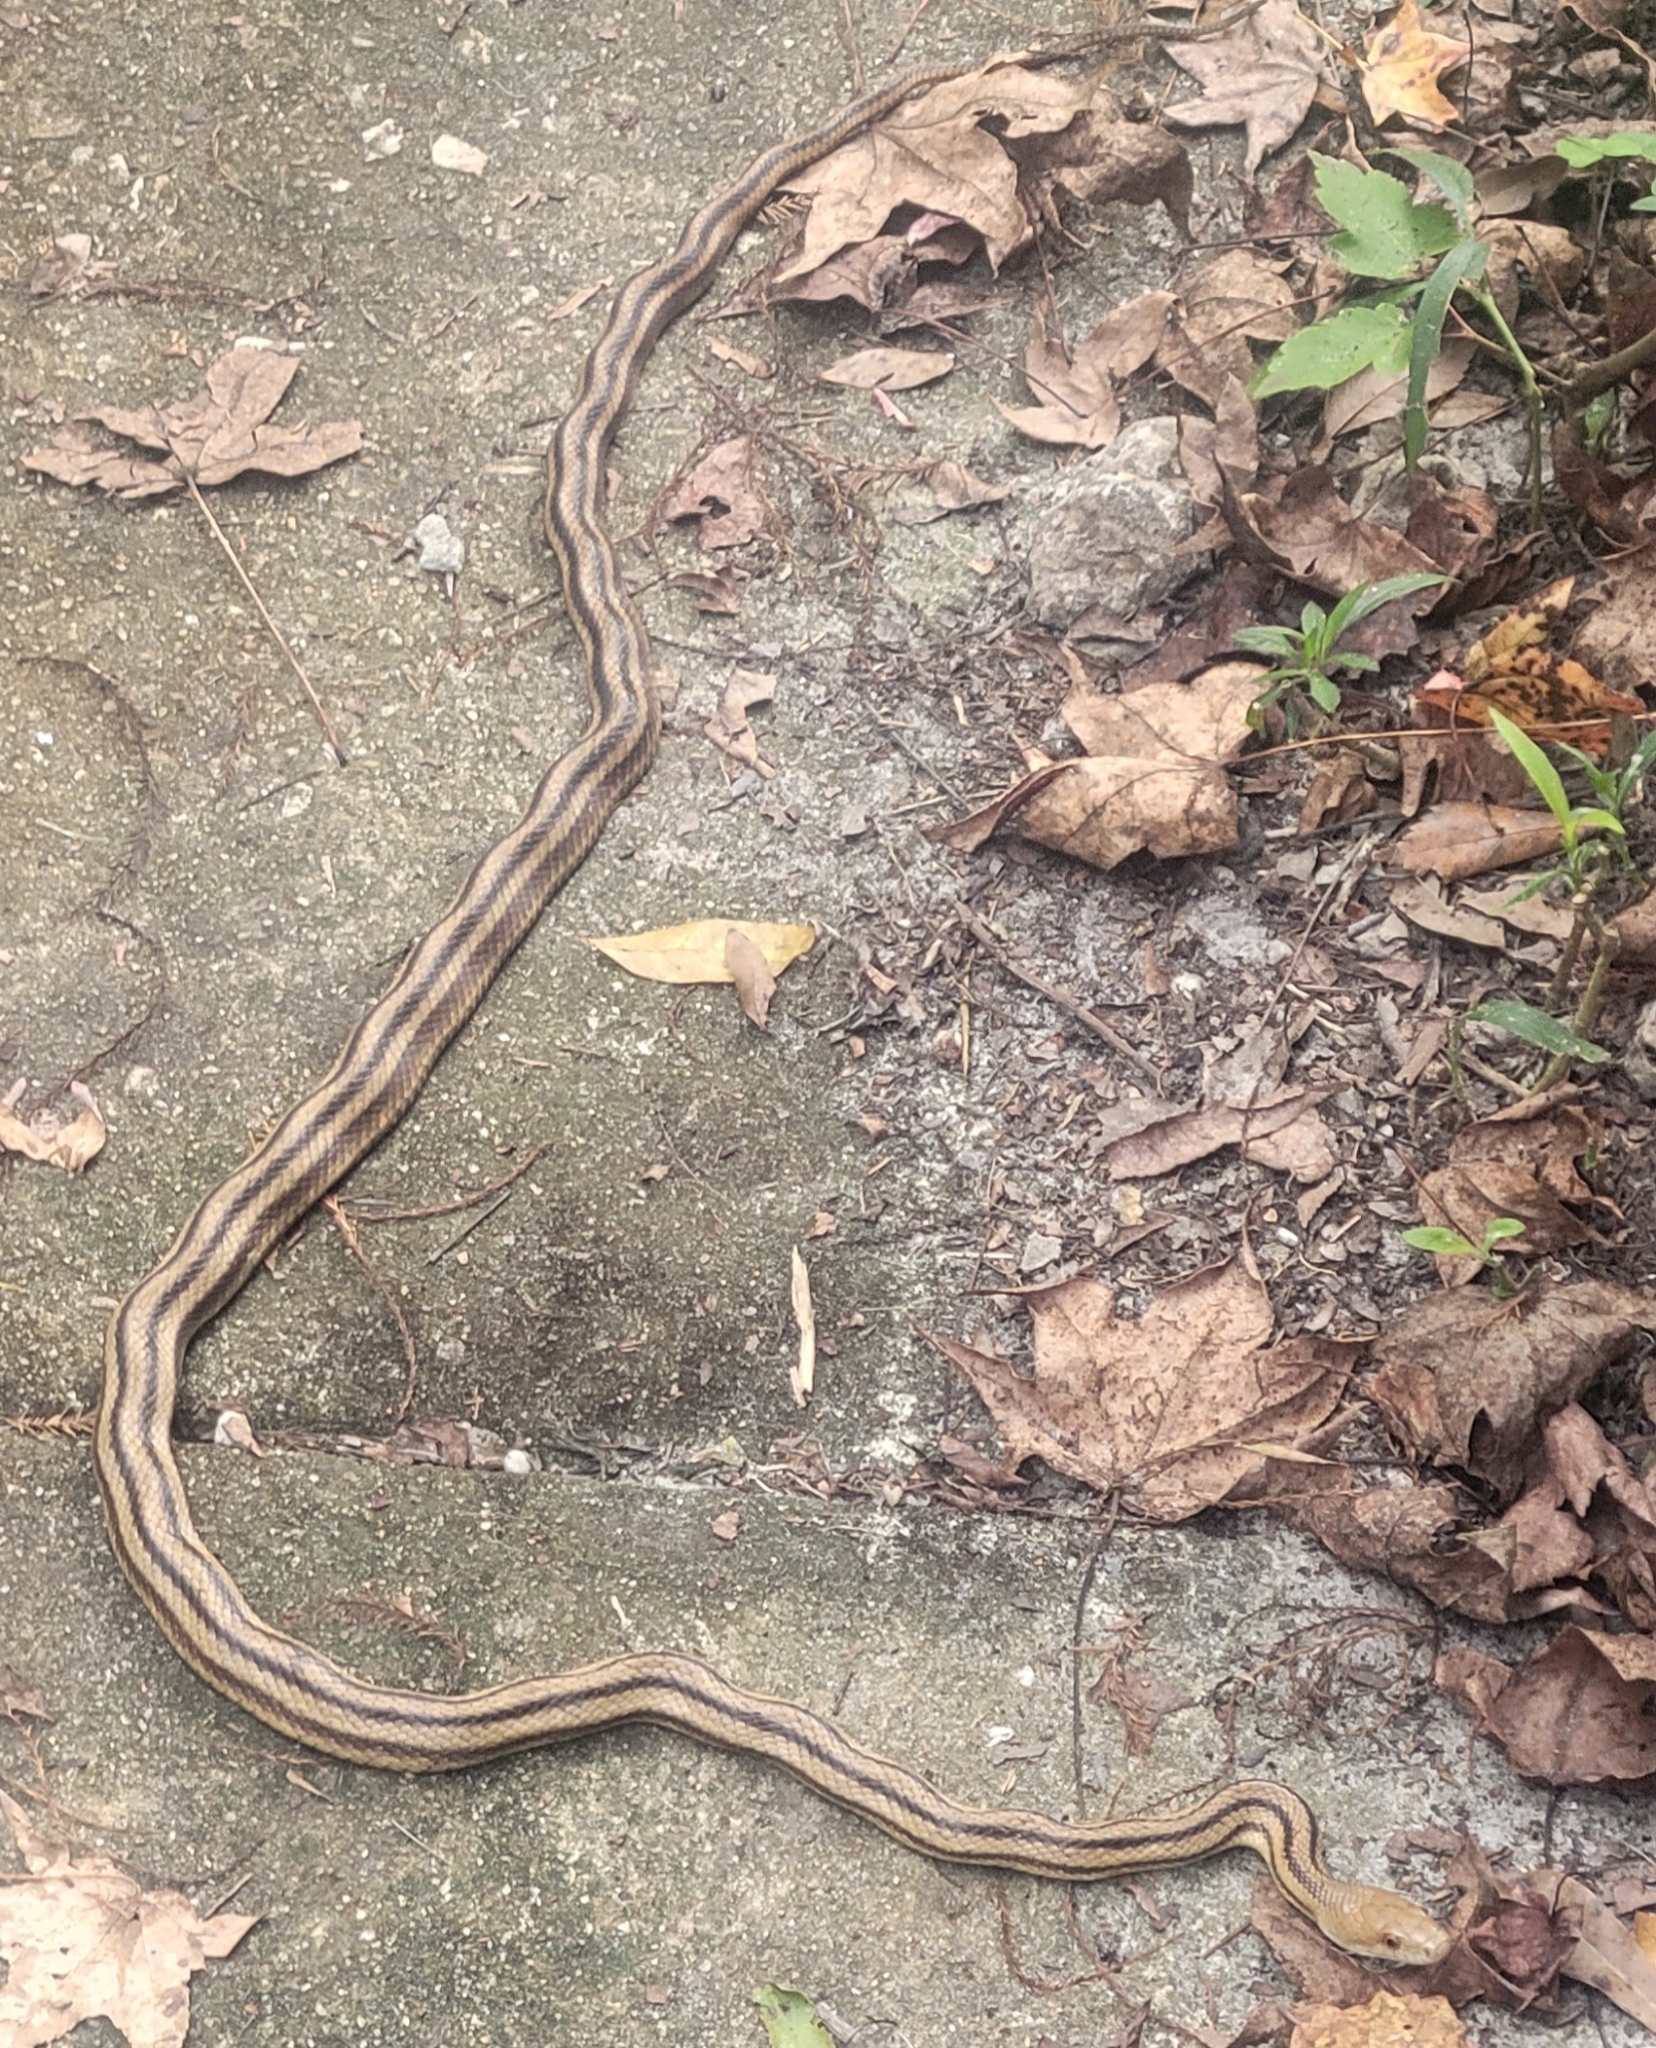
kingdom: Animalia
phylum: Chordata
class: Squamata
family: Colubridae
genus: Pantherophis
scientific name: Pantherophis alleghaniensis
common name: Eastern rat snake
